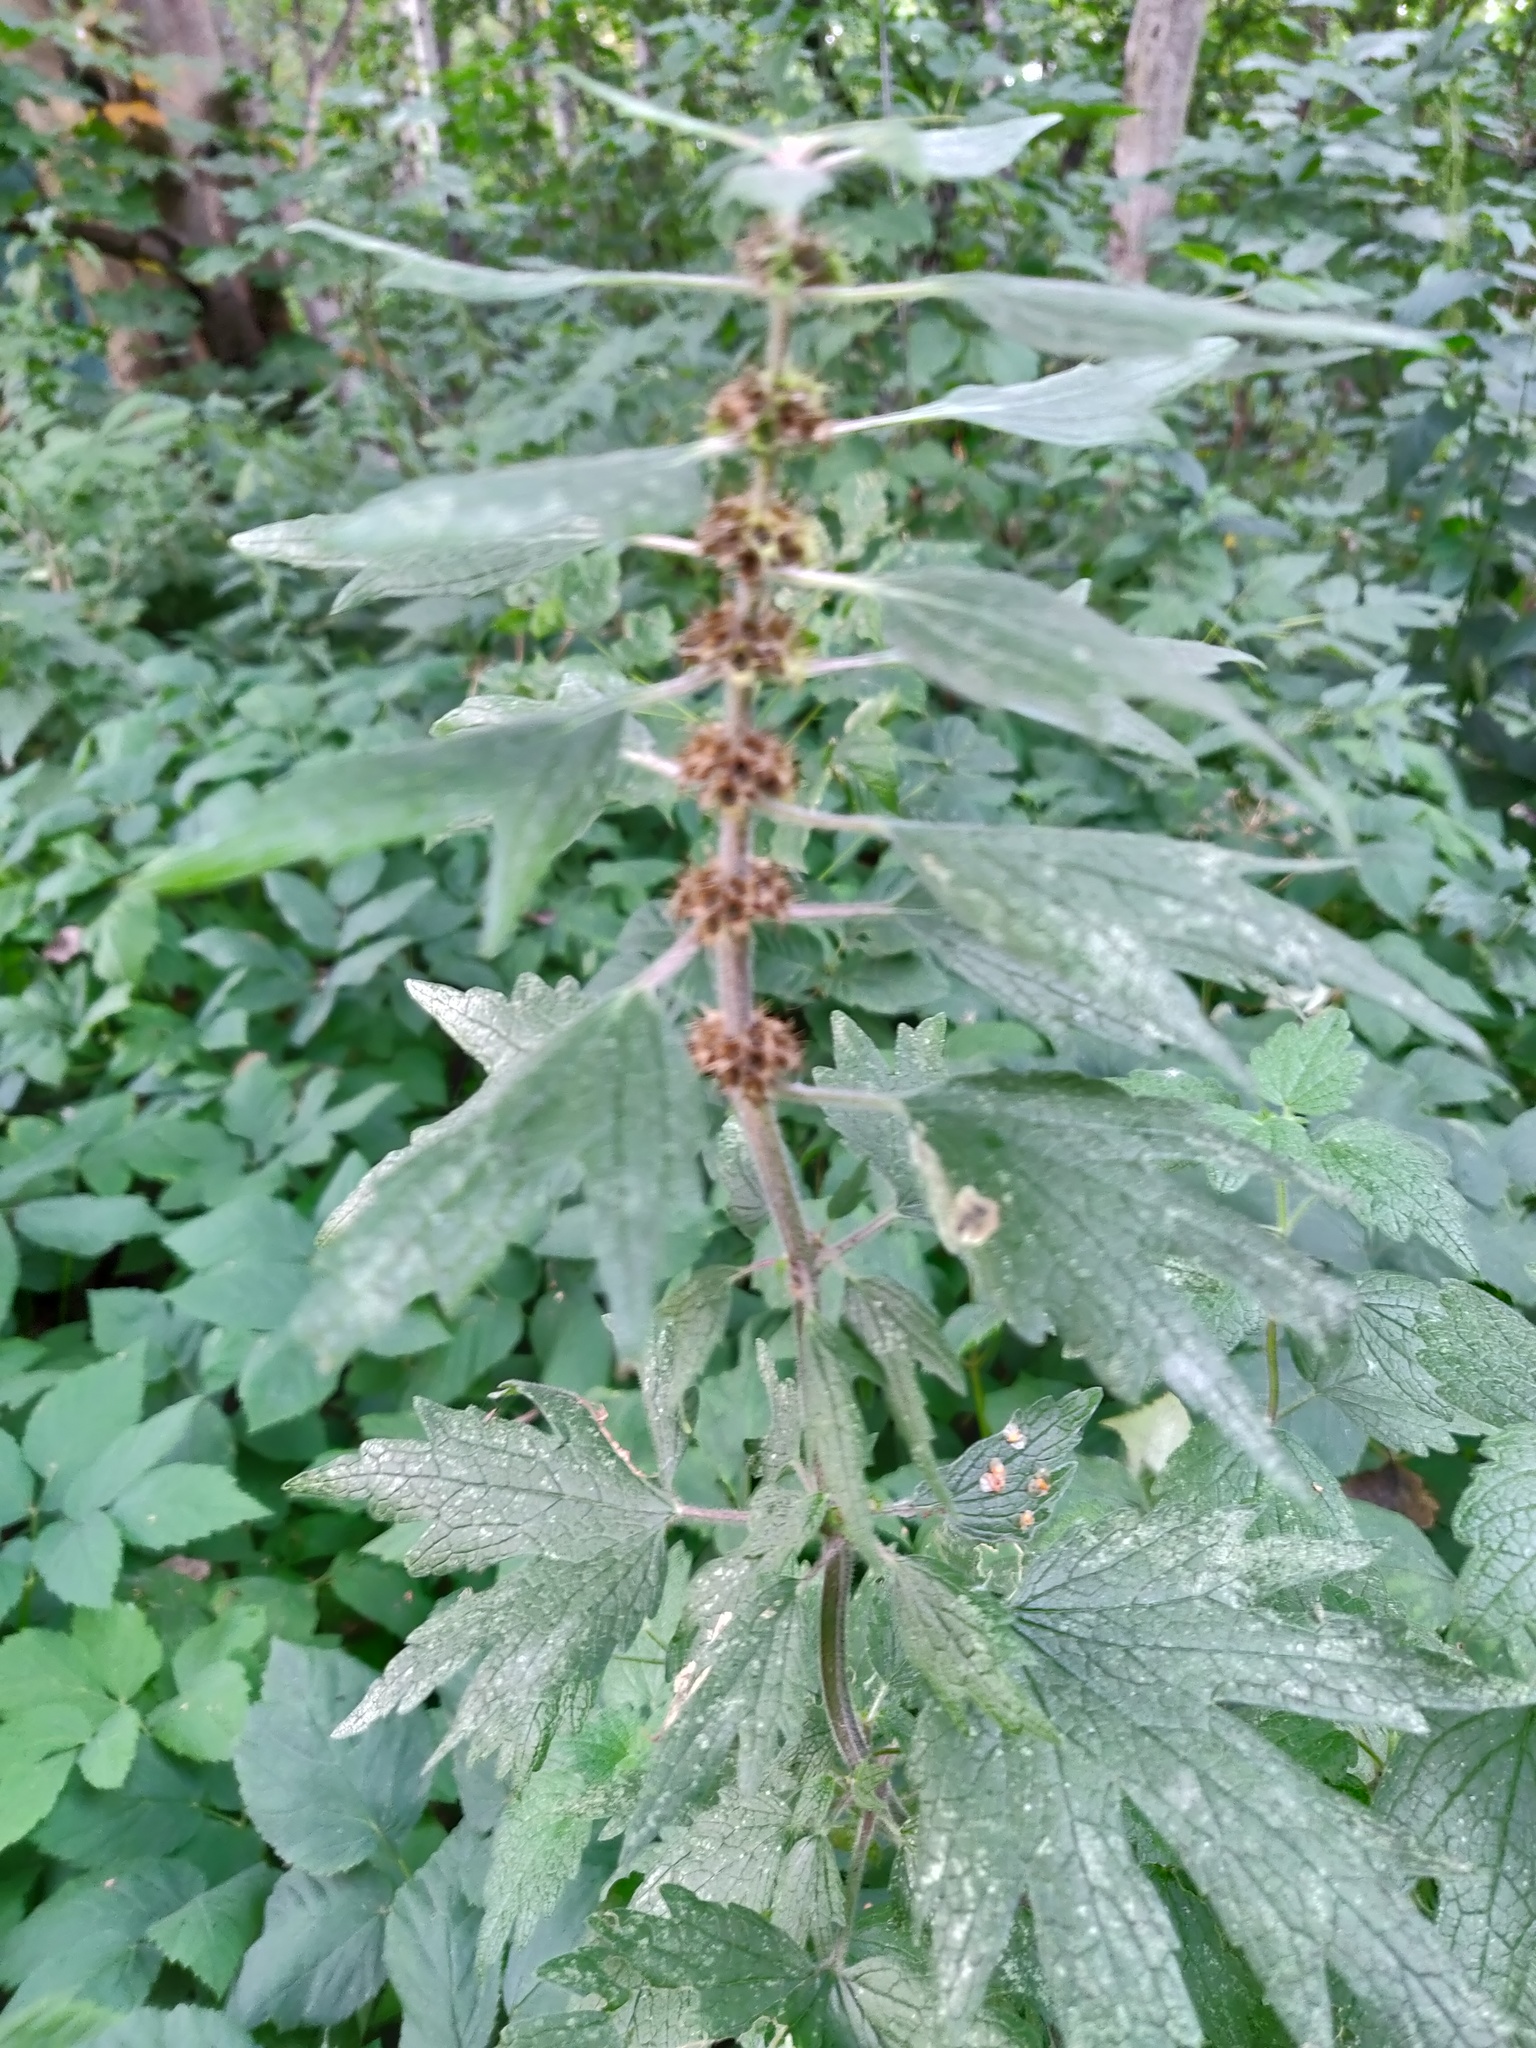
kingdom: Plantae
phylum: Tracheophyta
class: Magnoliopsida
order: Lamiales
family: Lamiaceae
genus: Leonurus
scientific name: Leonurus quinquelobatus
